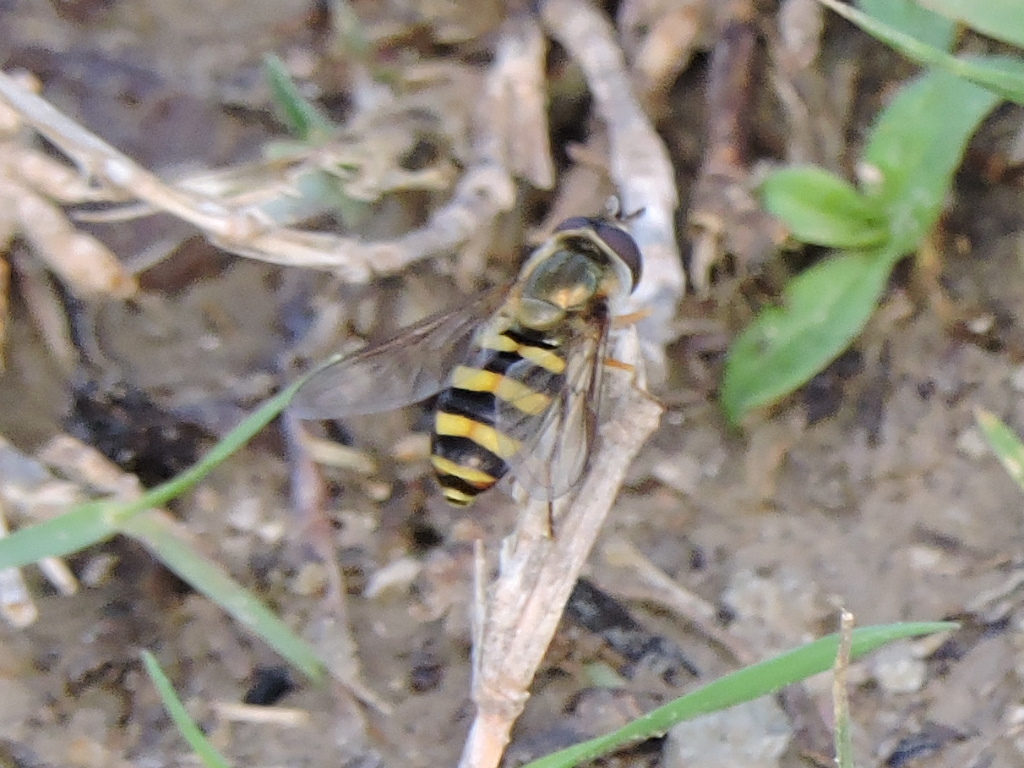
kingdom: Animalia
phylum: Arthropoda
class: Insecta
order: Diptera
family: Syrphidae
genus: Eupeodes
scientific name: Eupeodes
